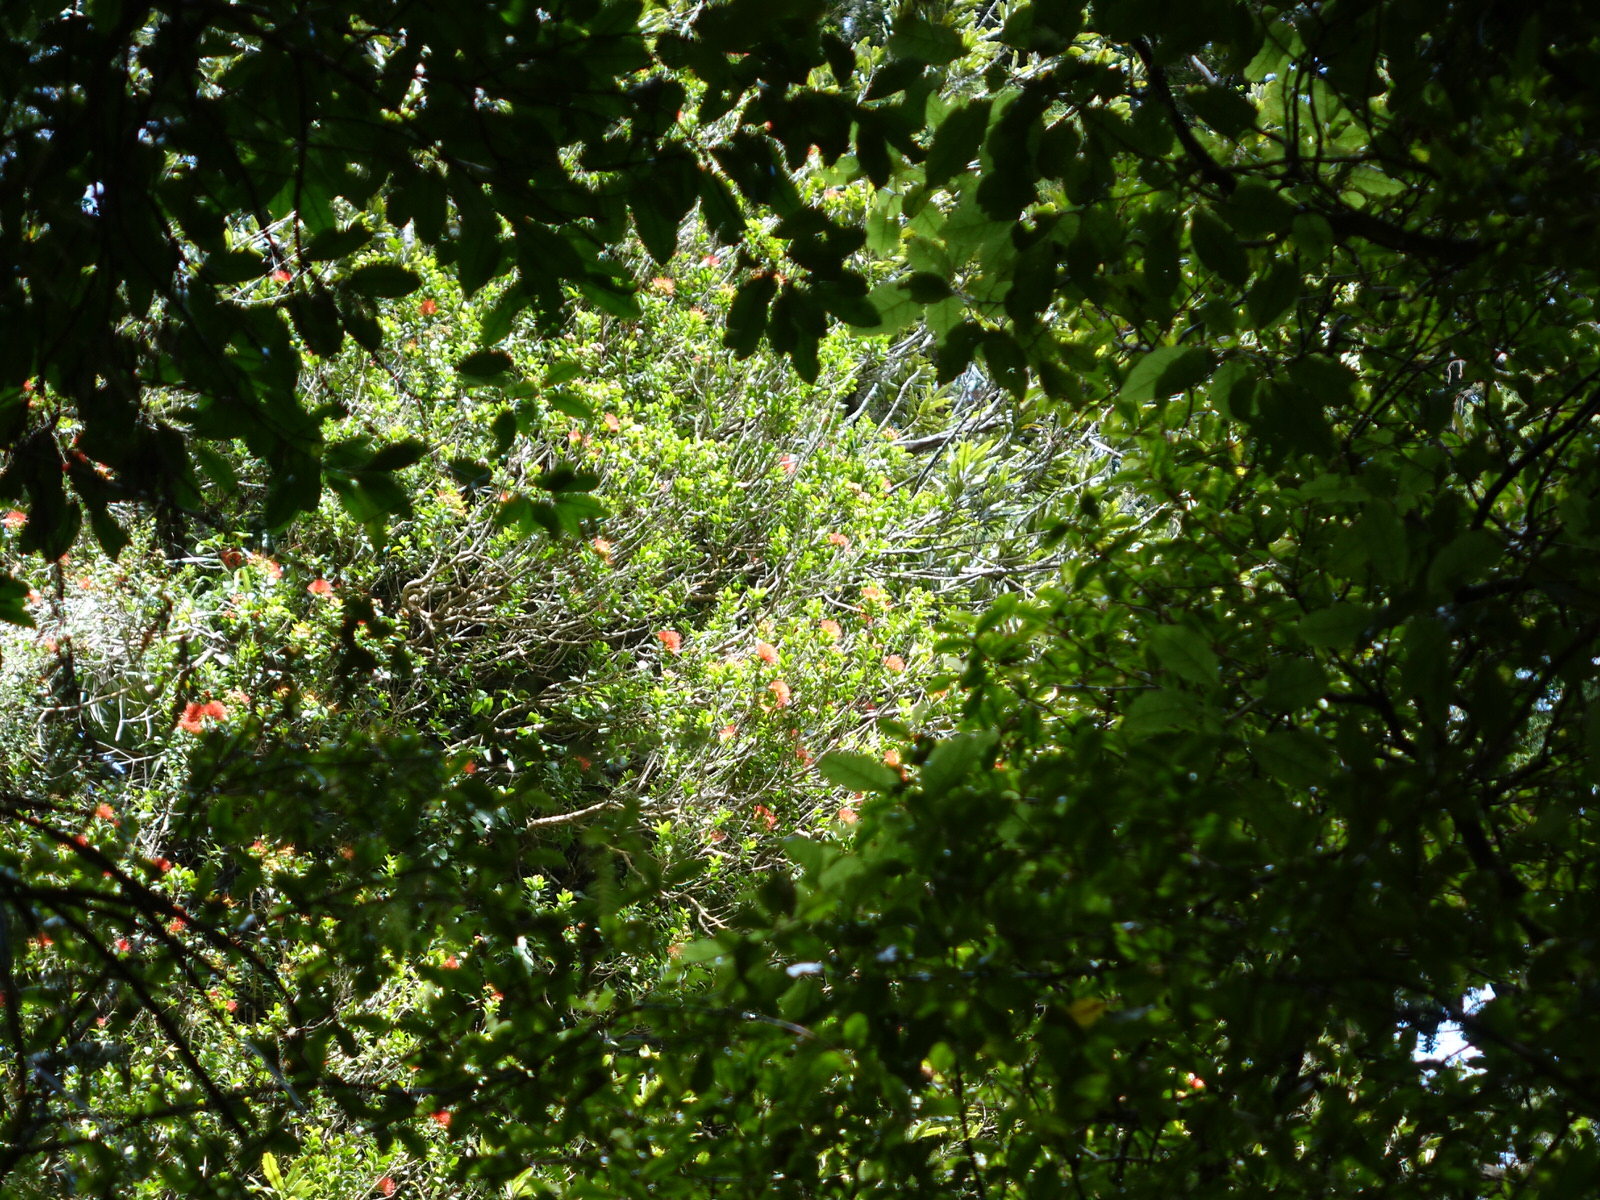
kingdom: Plantae
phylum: Tracheophyta
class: Magnoliopsida
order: Myrtales
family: Myrtaceae
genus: Metrosideros
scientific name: Metrosideros fulgens
